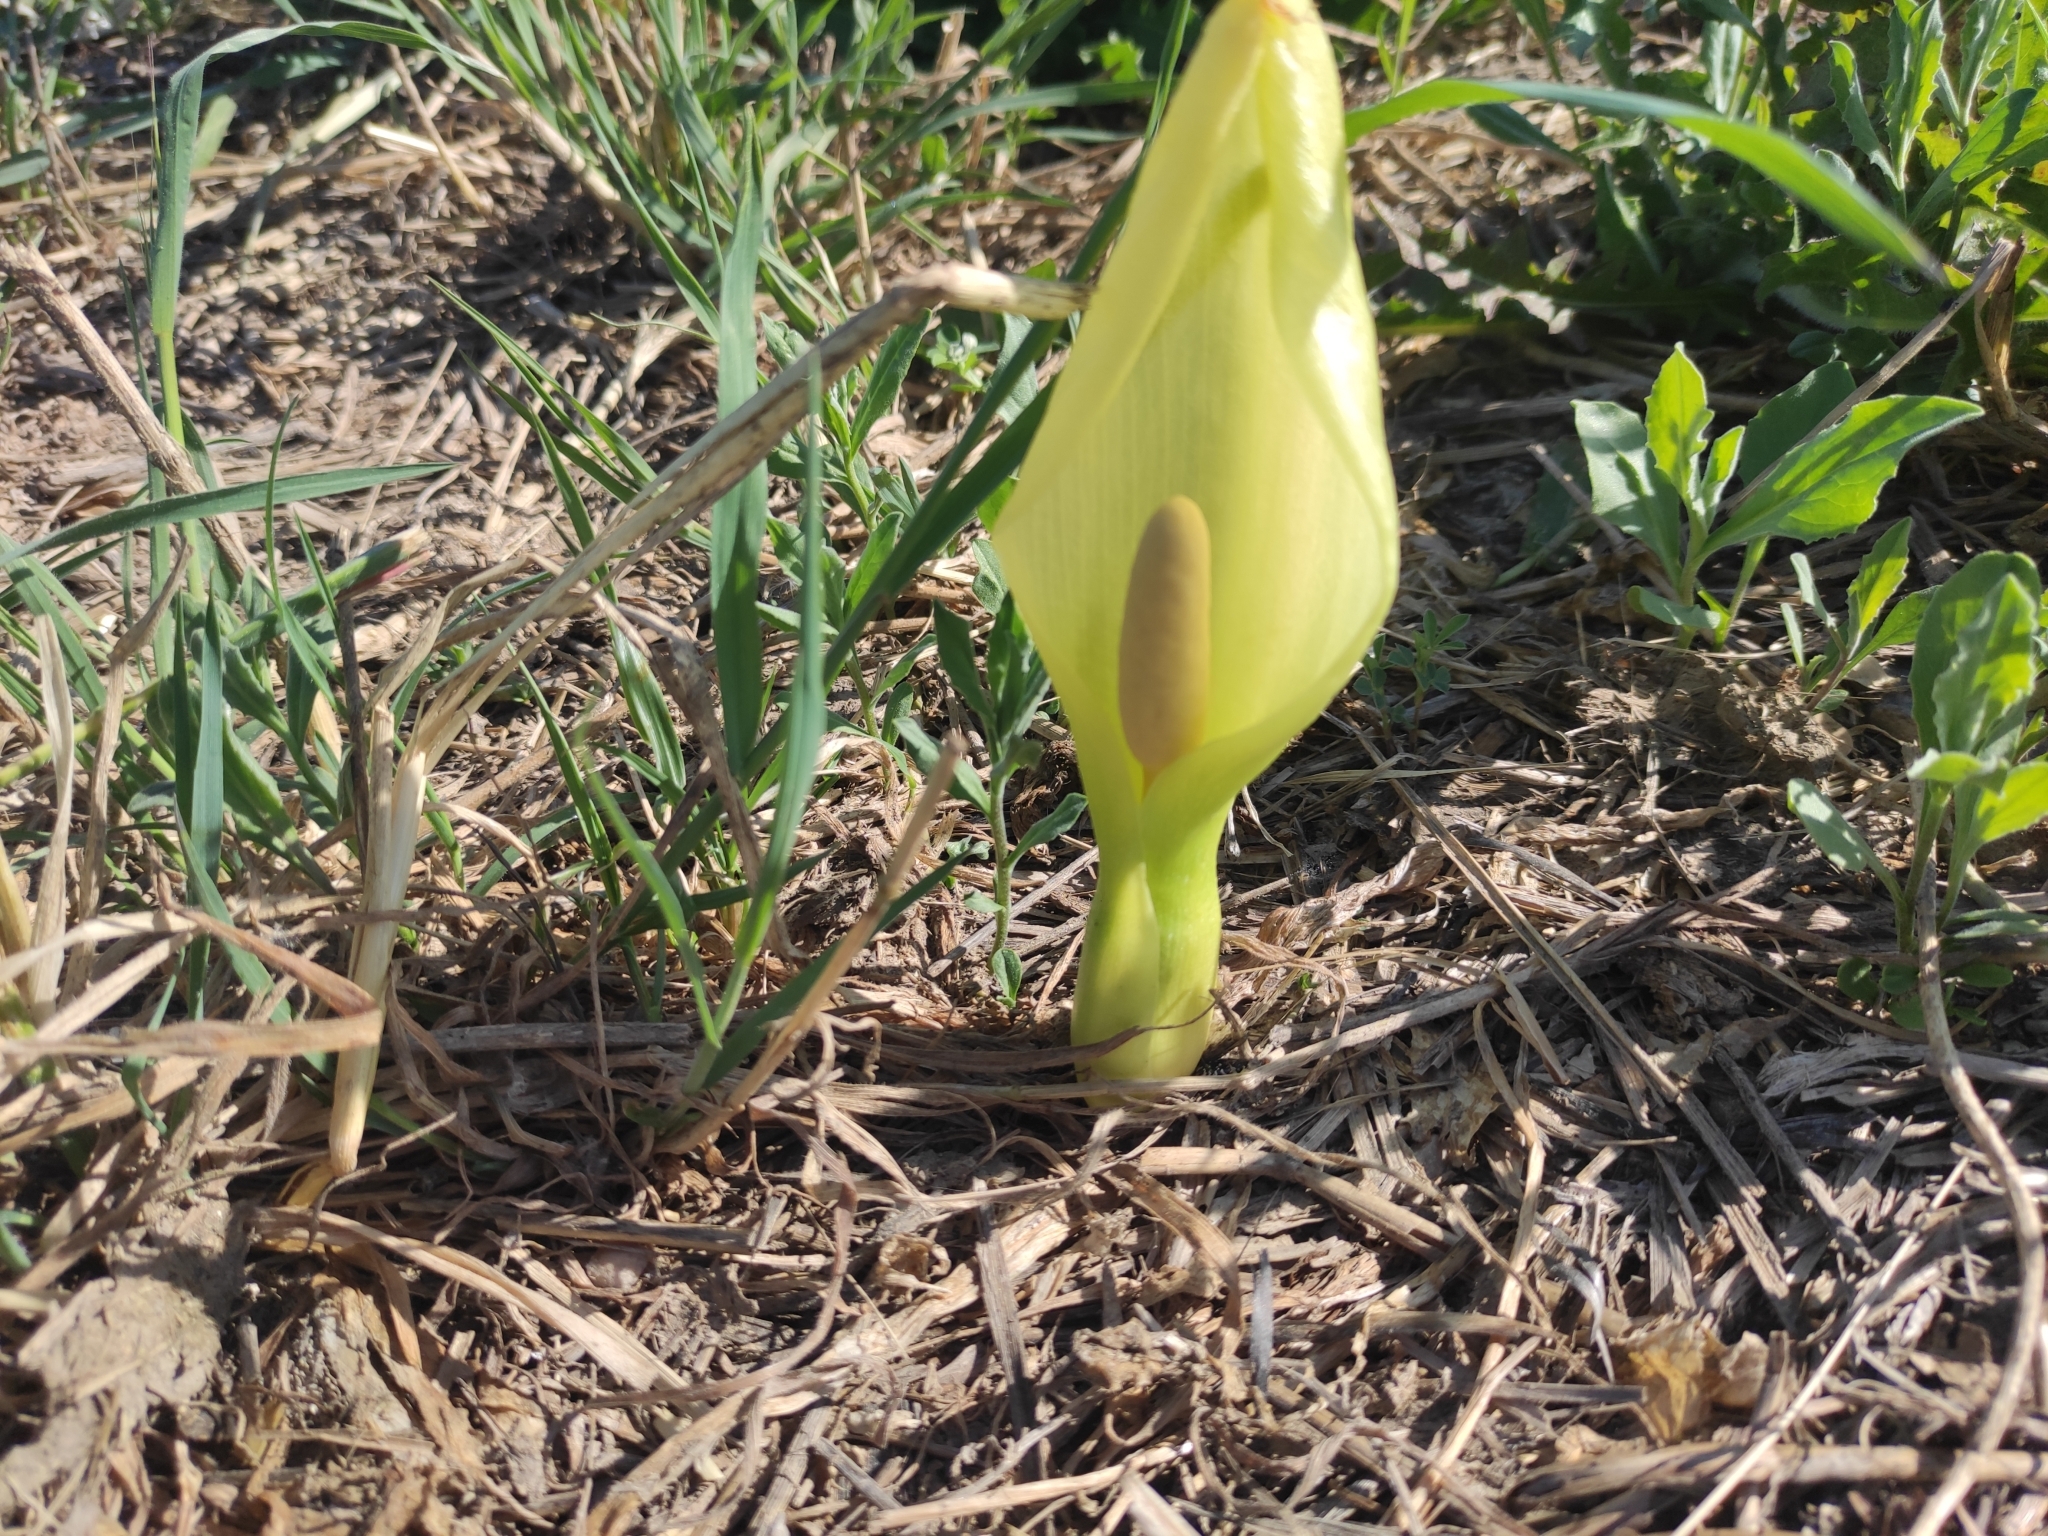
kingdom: Plantae
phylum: Tracheophyta
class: Liliopsida
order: Alismatales
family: Araceae
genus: Arum
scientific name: Arum italicum
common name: Italian lords-and-ladies
